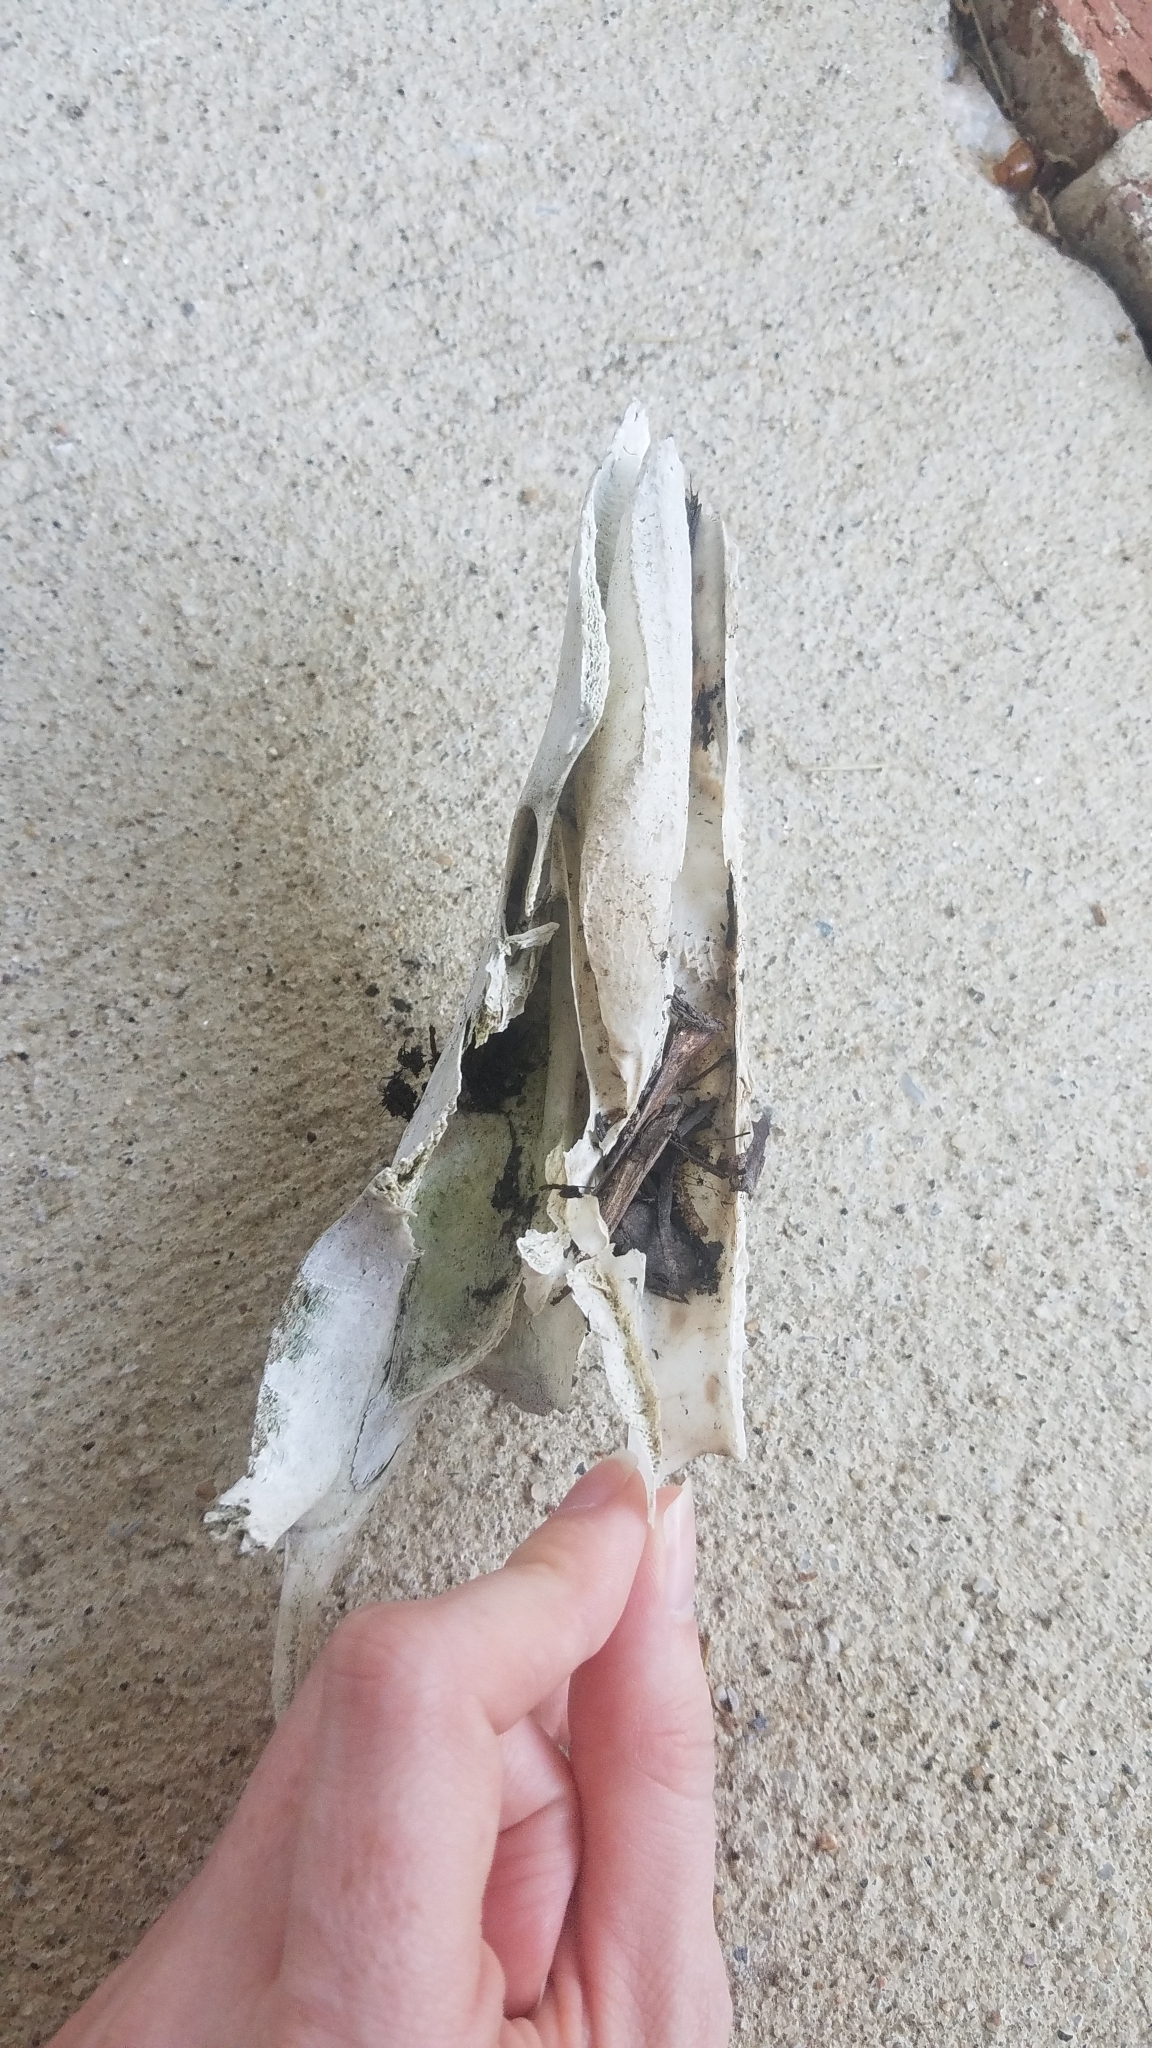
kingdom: Animalia
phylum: Chordata
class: Mammalia
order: Artiodactyla
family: Cervidae
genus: Odocoileus
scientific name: Odocoileus virginianus
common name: White-tailed deer
